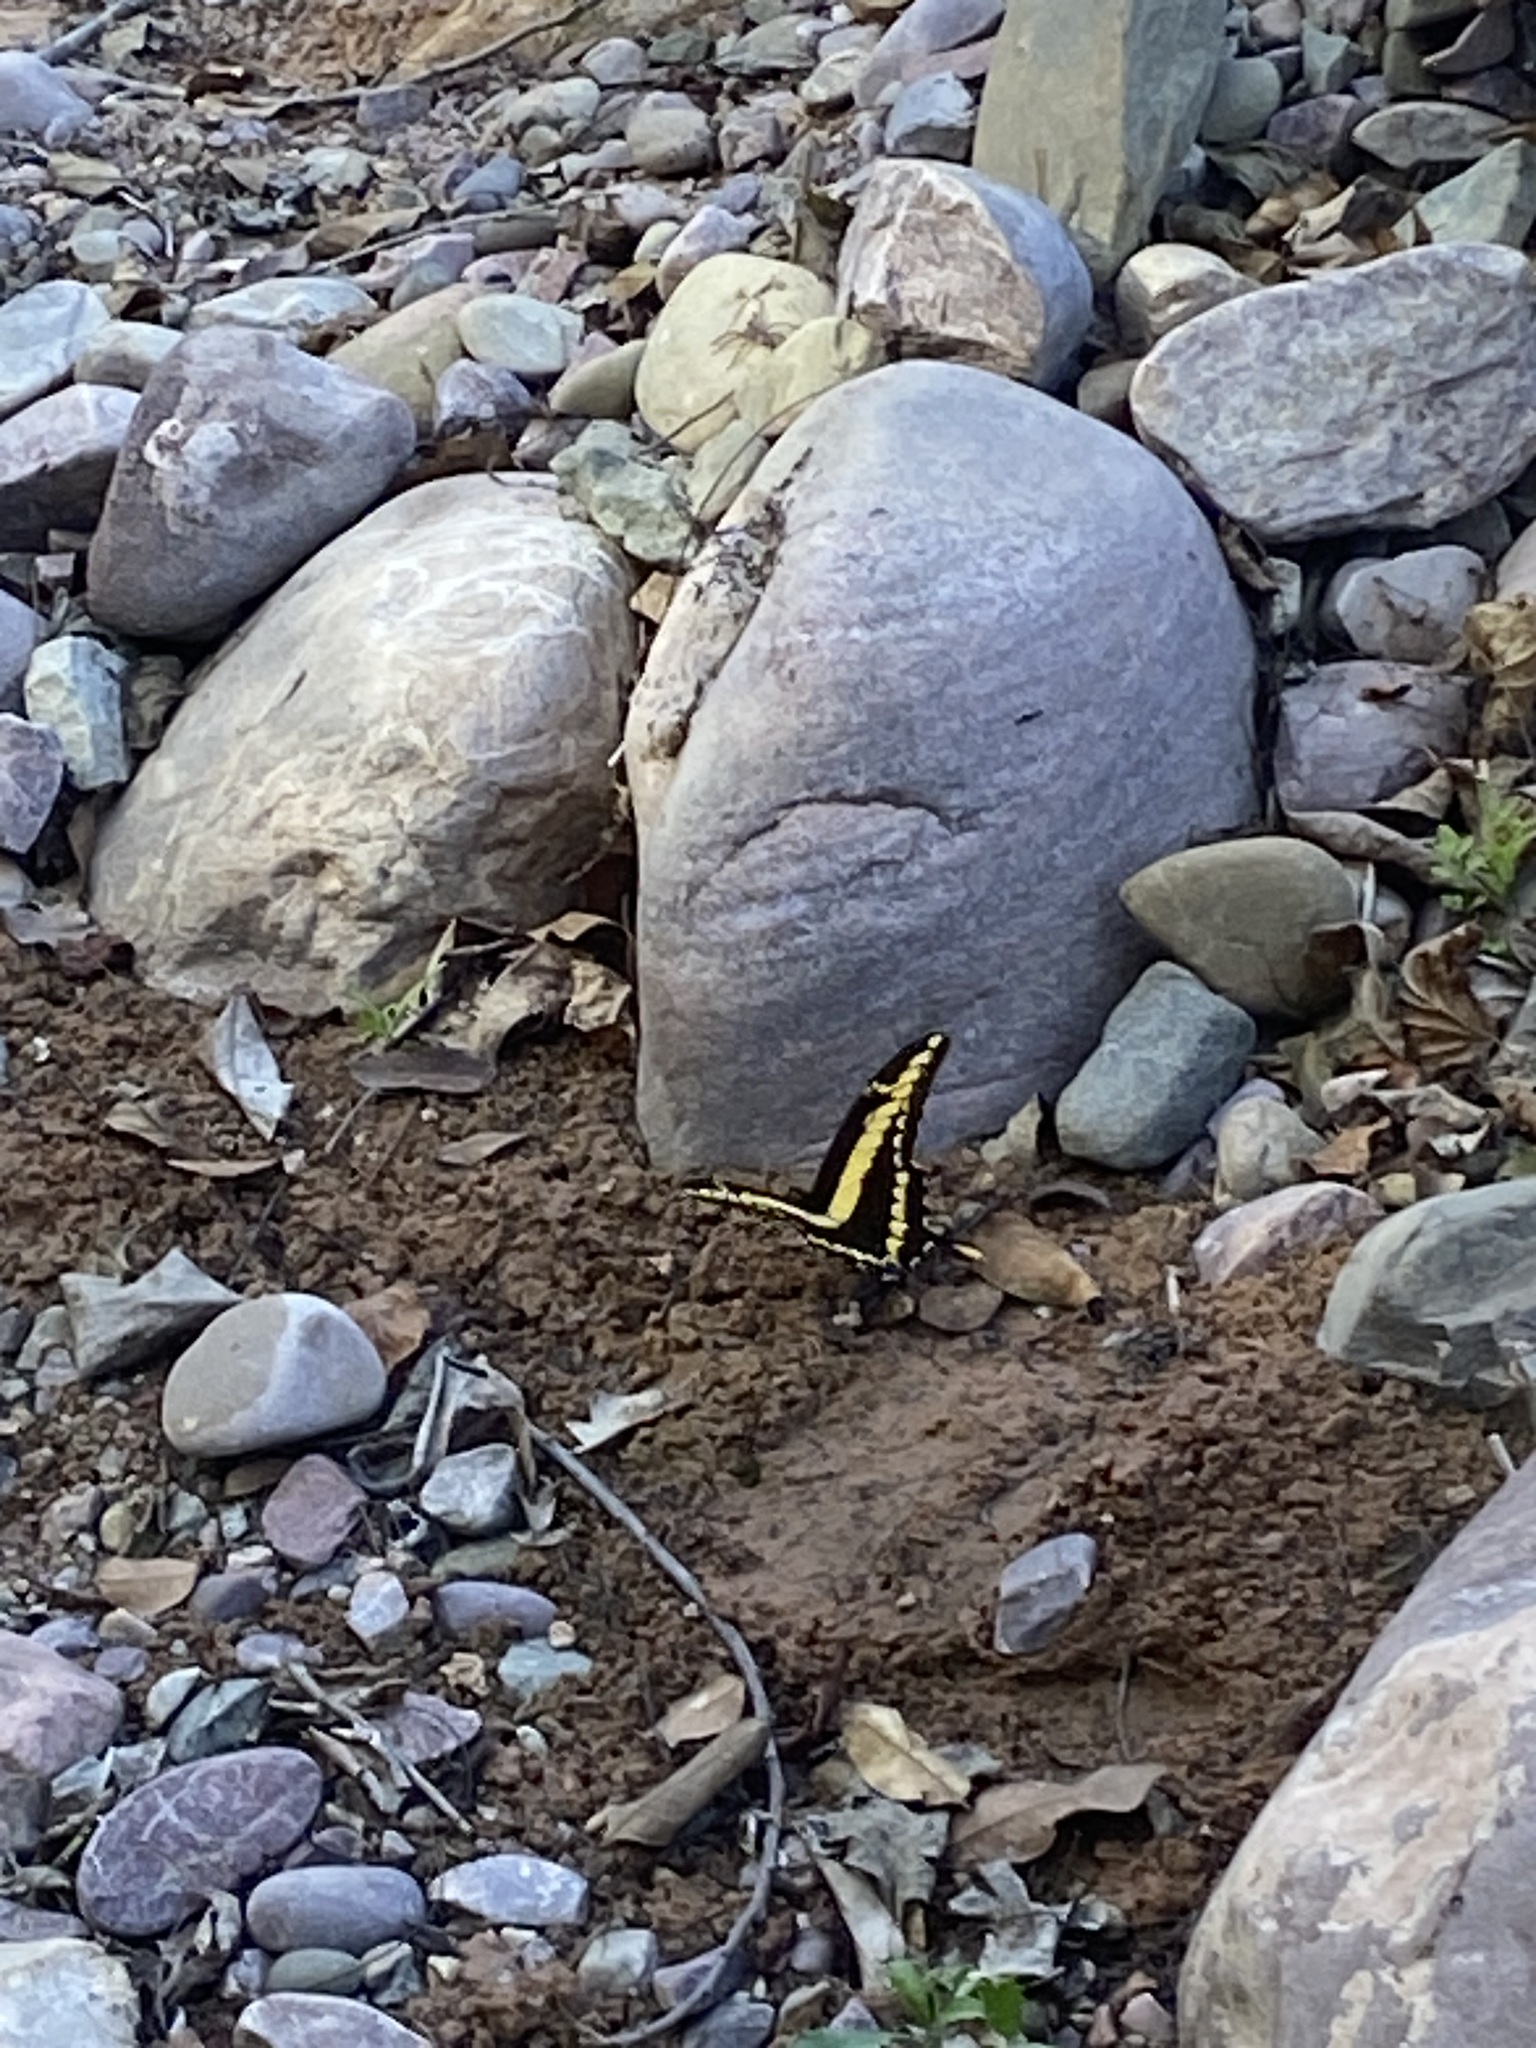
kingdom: Animalia
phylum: Arthropoda
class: Insecta
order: Lepidoptera
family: Papilionidae
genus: Papilio
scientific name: Papilio thoas
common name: King swallowtail
